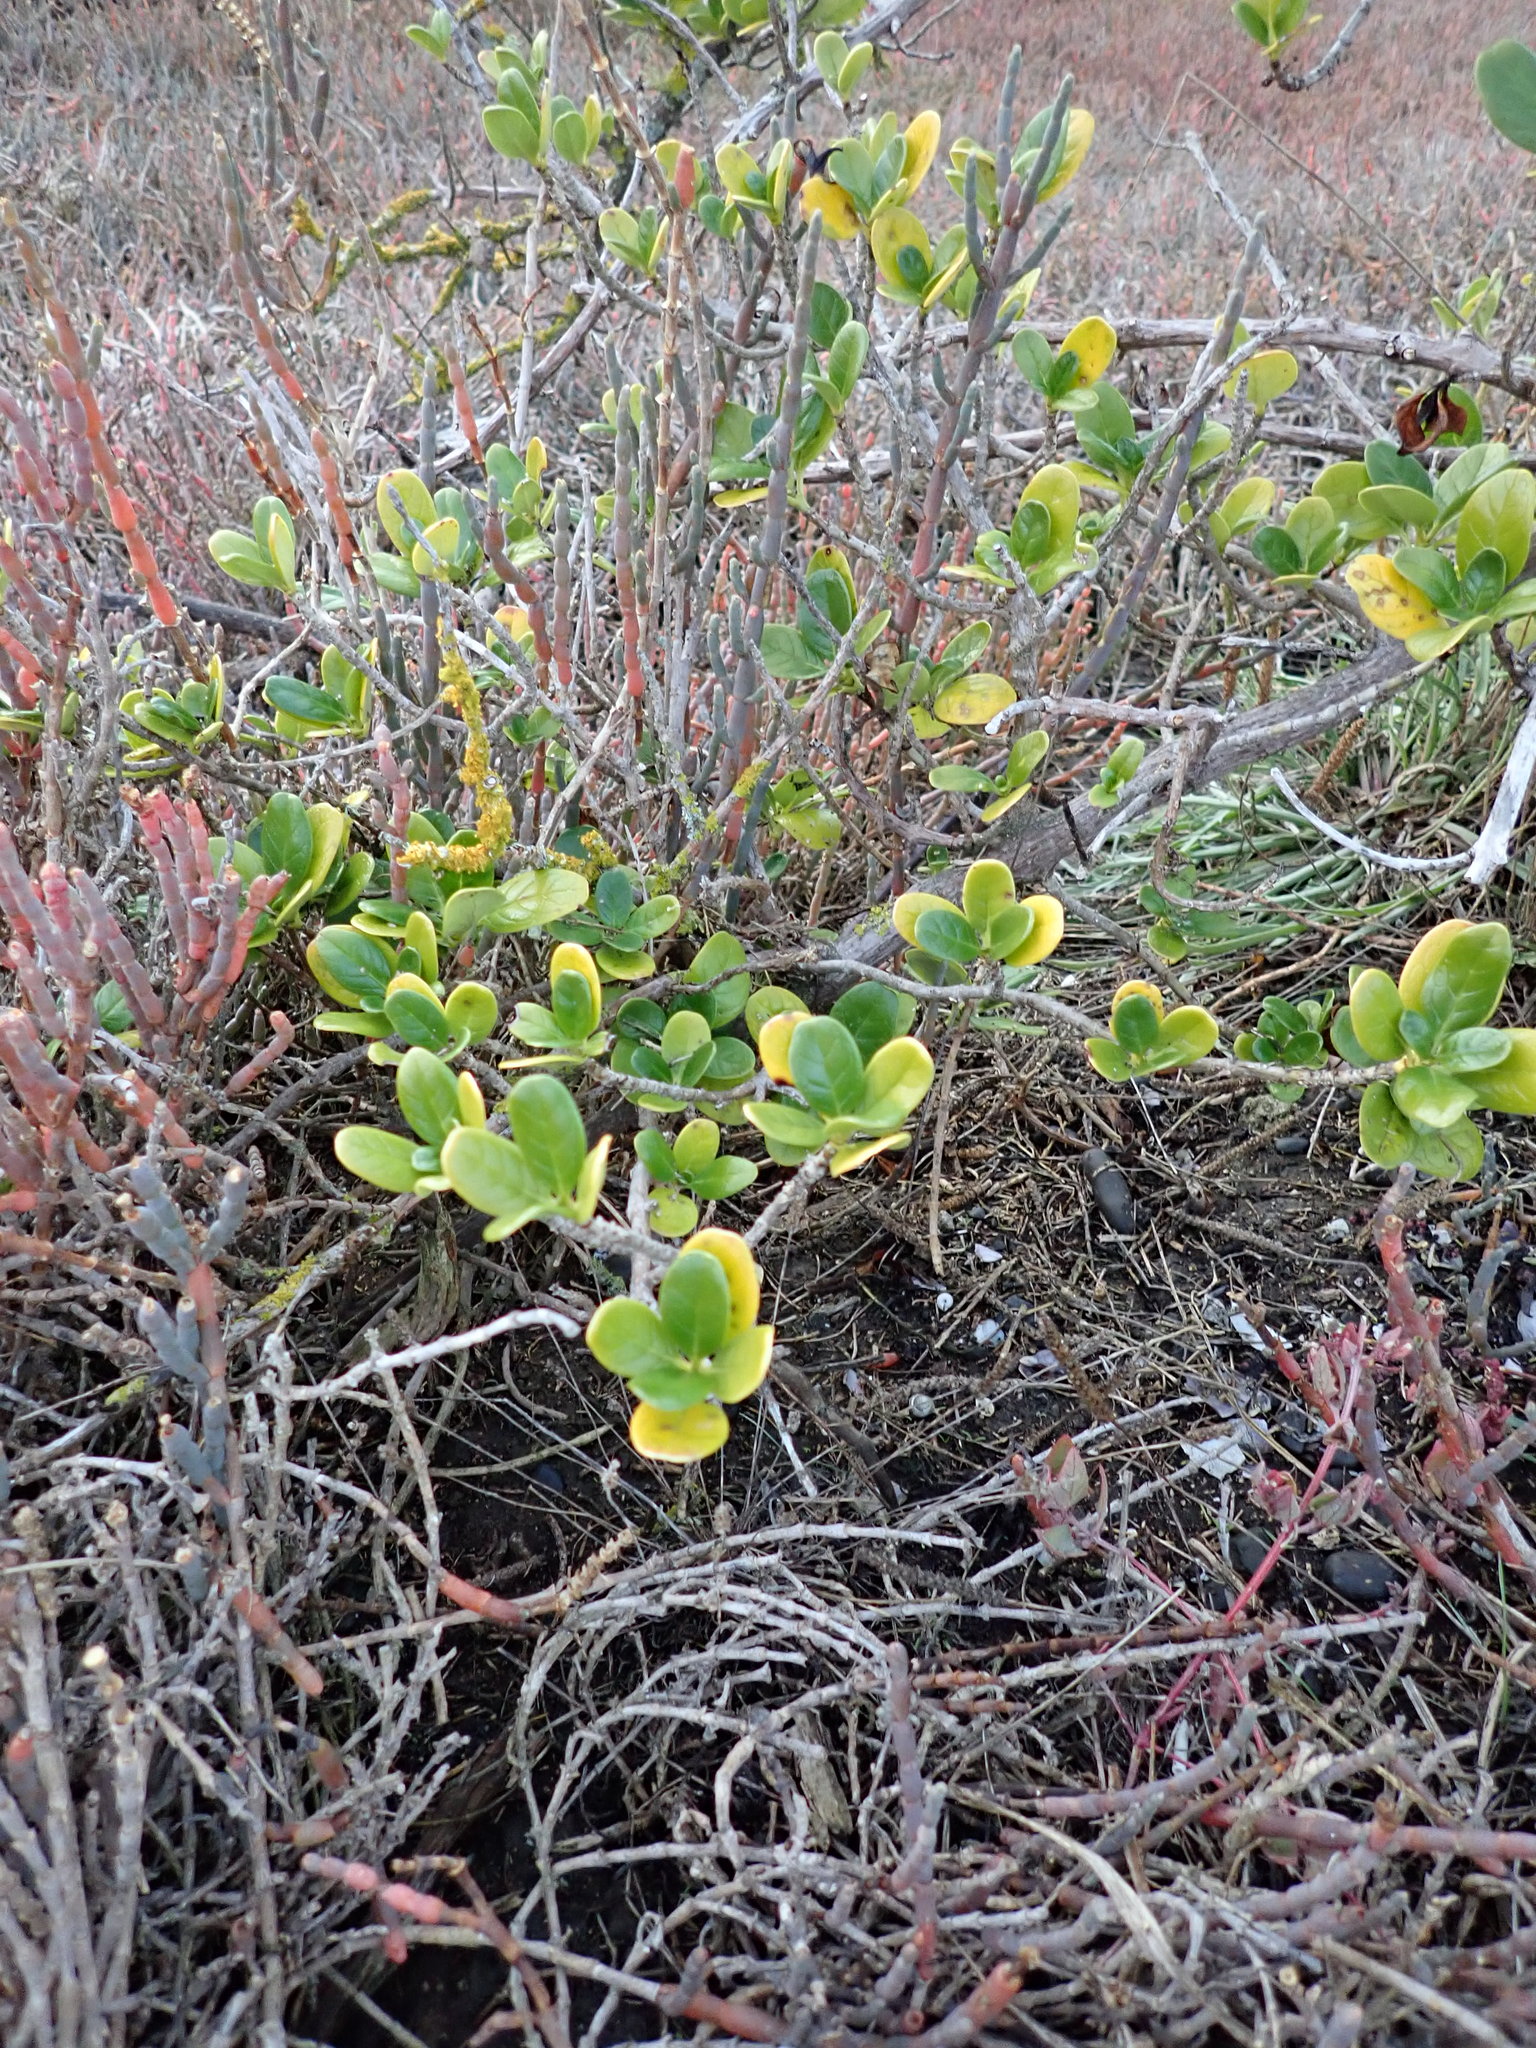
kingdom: Plantae
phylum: Tracheophyta
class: Magnoliopsida
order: Gentianales
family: Rubiaceae
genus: Coprosma
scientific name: Coprosma repens
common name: Tree bedstraw
